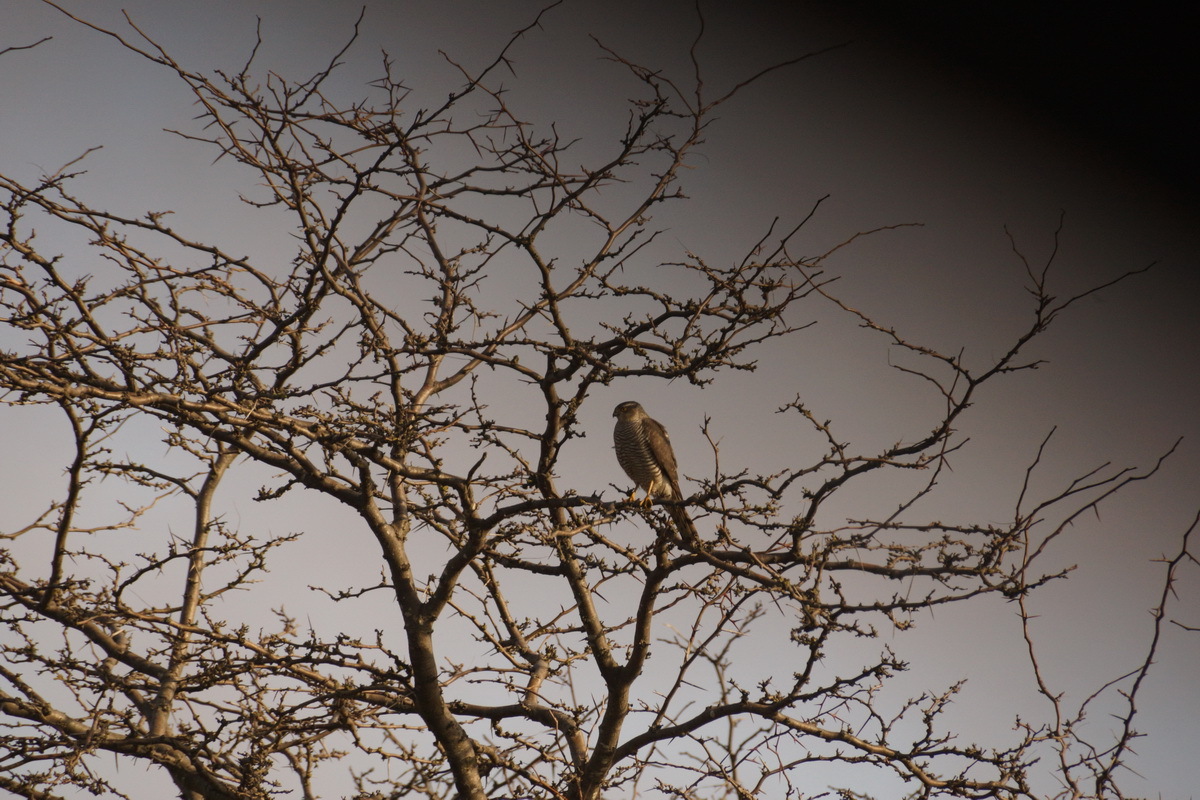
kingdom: Animalia
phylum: Chordata
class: Aves
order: Accipitriformes
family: Accipitridae
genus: Accipiter
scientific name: Accipiter nisus
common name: Eurasian sparrowhawk
